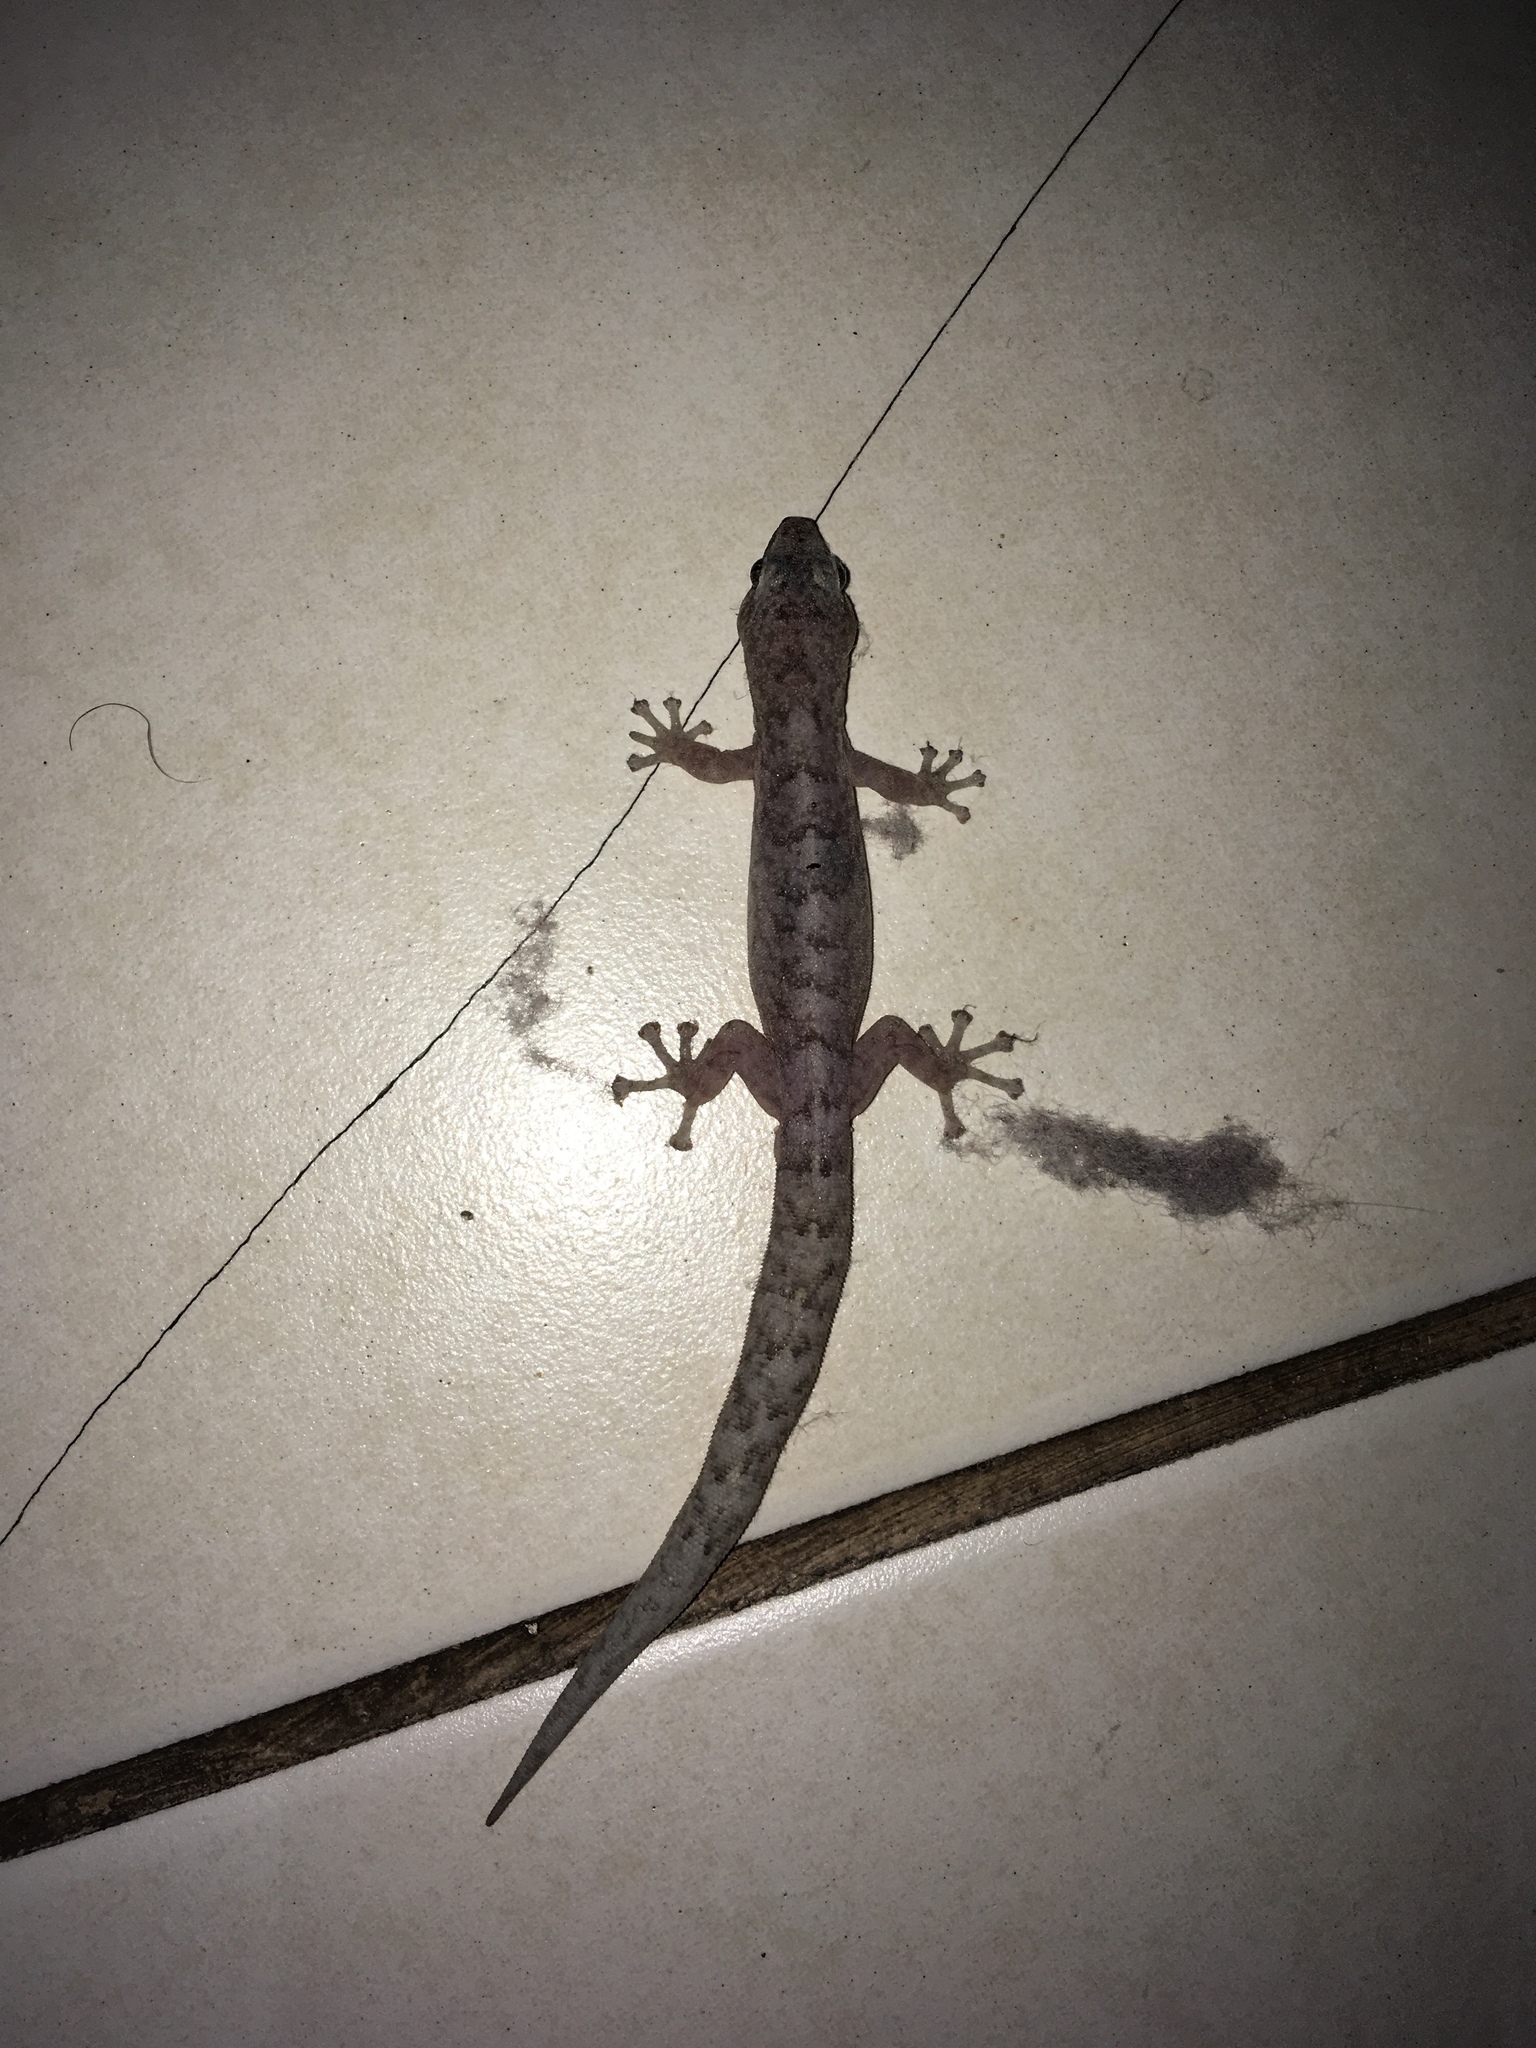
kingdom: Animalia
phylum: Chordata
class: Squamata
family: Gekkonidae
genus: Christinus
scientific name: Christinus marmoratus
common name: Marbled gecko
